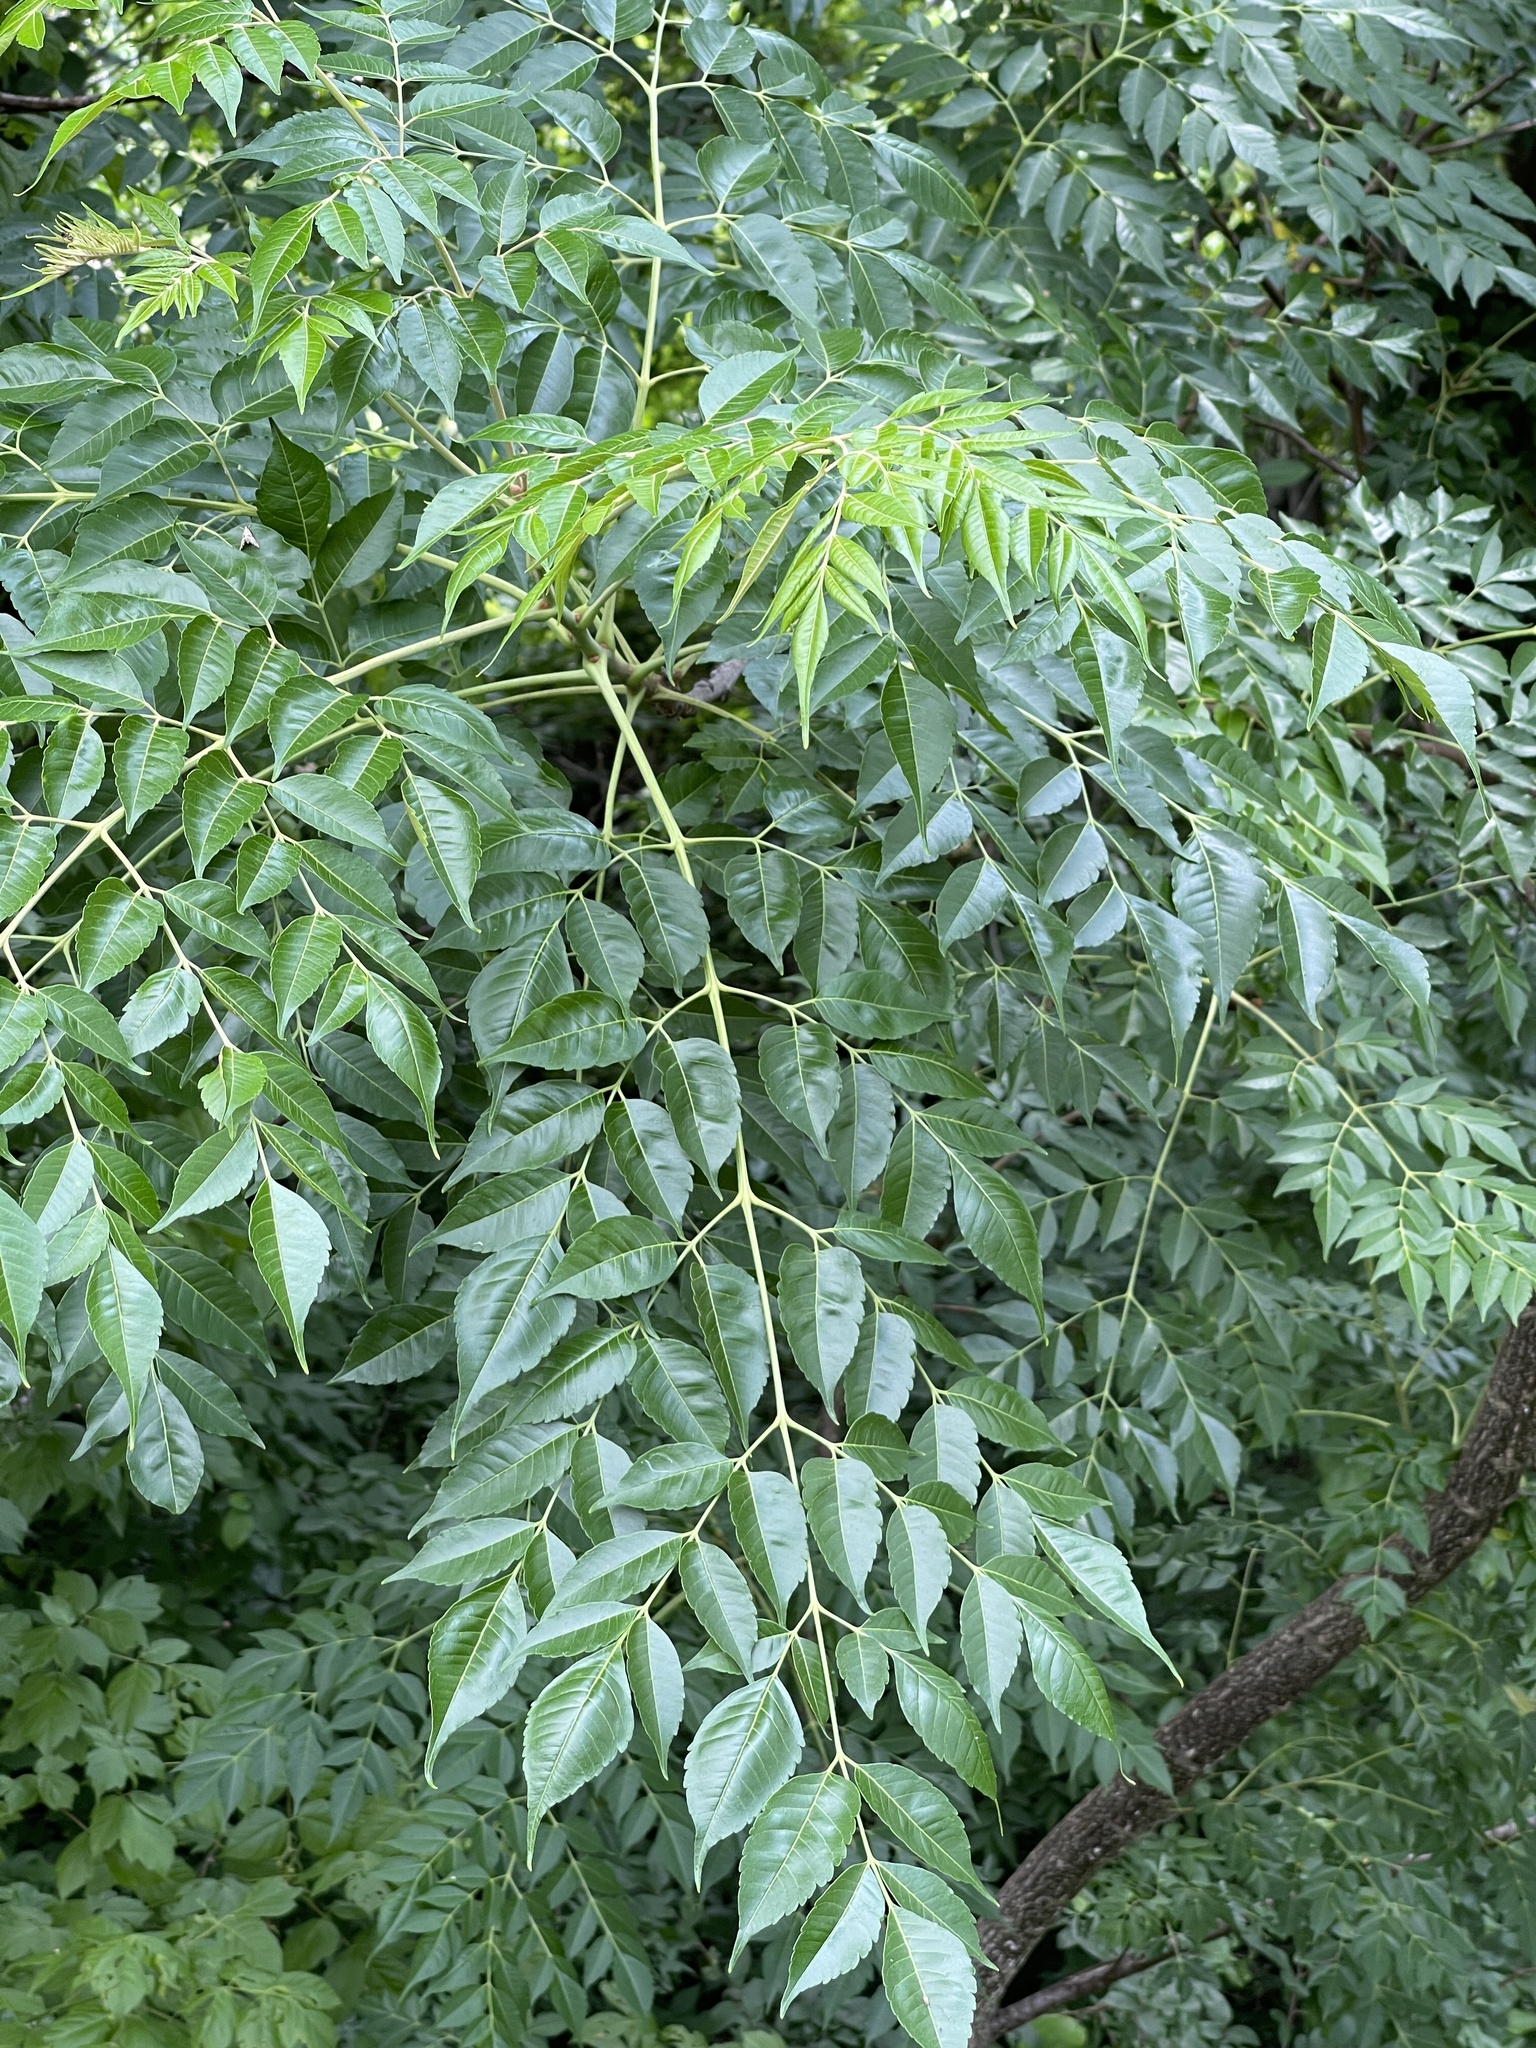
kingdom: Plantae
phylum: Tracheophyta
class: Magnoliopsida
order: Sapindales
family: Meliaceae
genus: Melia
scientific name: Melia azedarach
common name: Chinaberrytree
